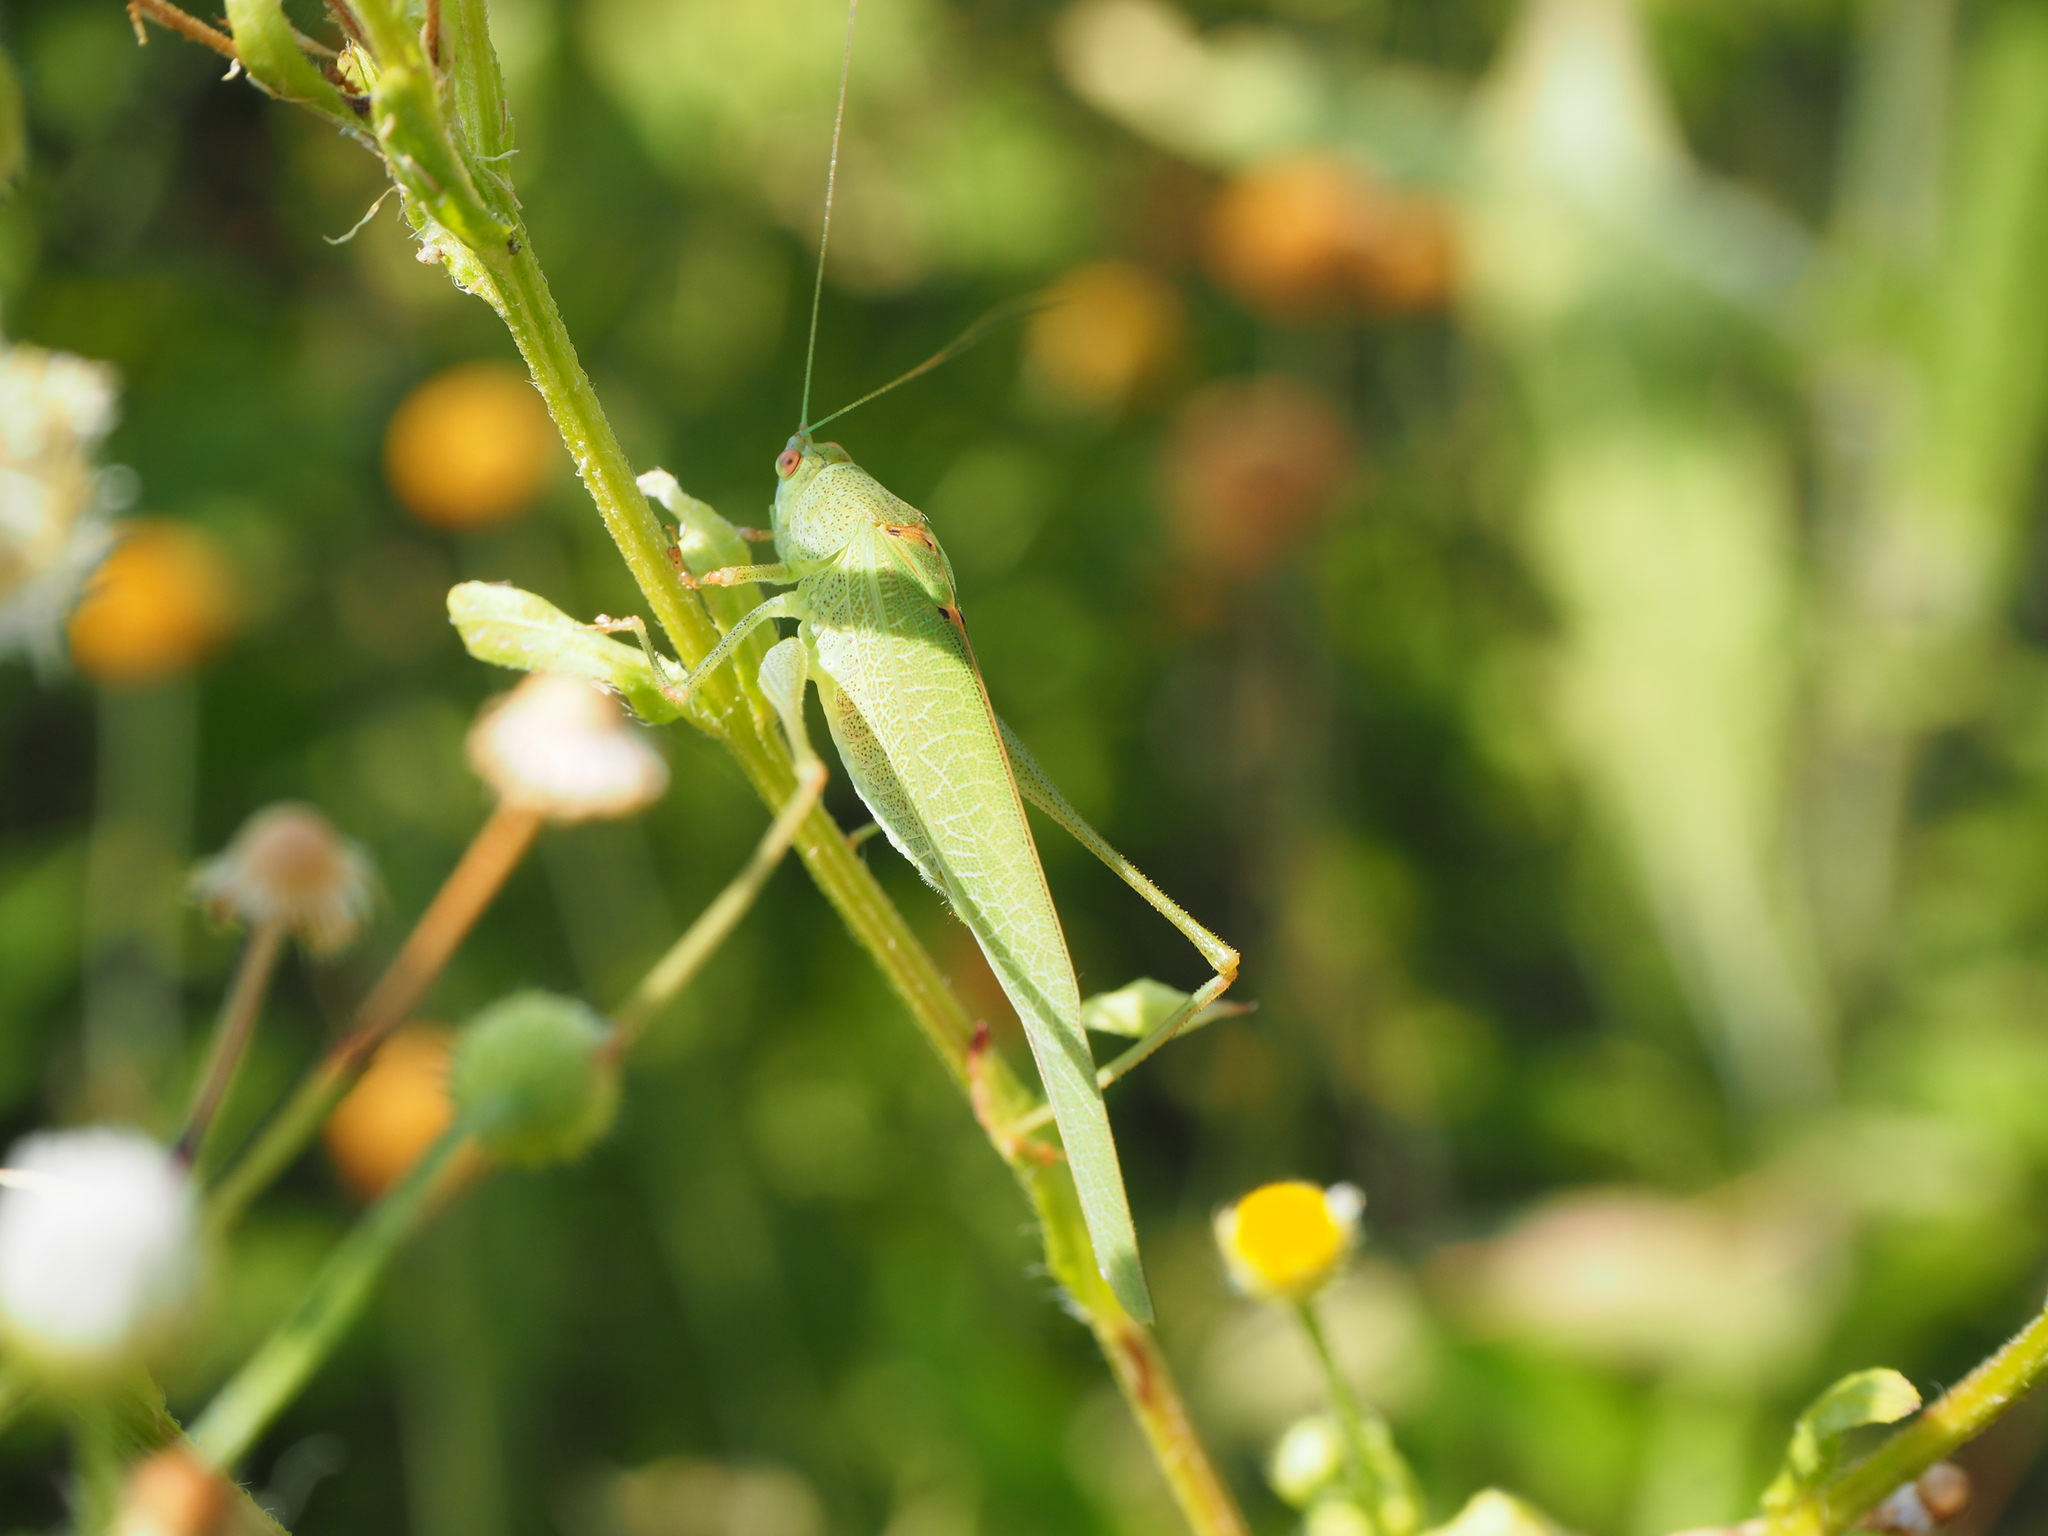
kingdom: Animalia
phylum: Arthropoda
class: Insecta
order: Orthoptera
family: Tettigoniidae
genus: Phaneroptera
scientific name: Phaneroptera nana
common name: Southern sickle bush-cricket
